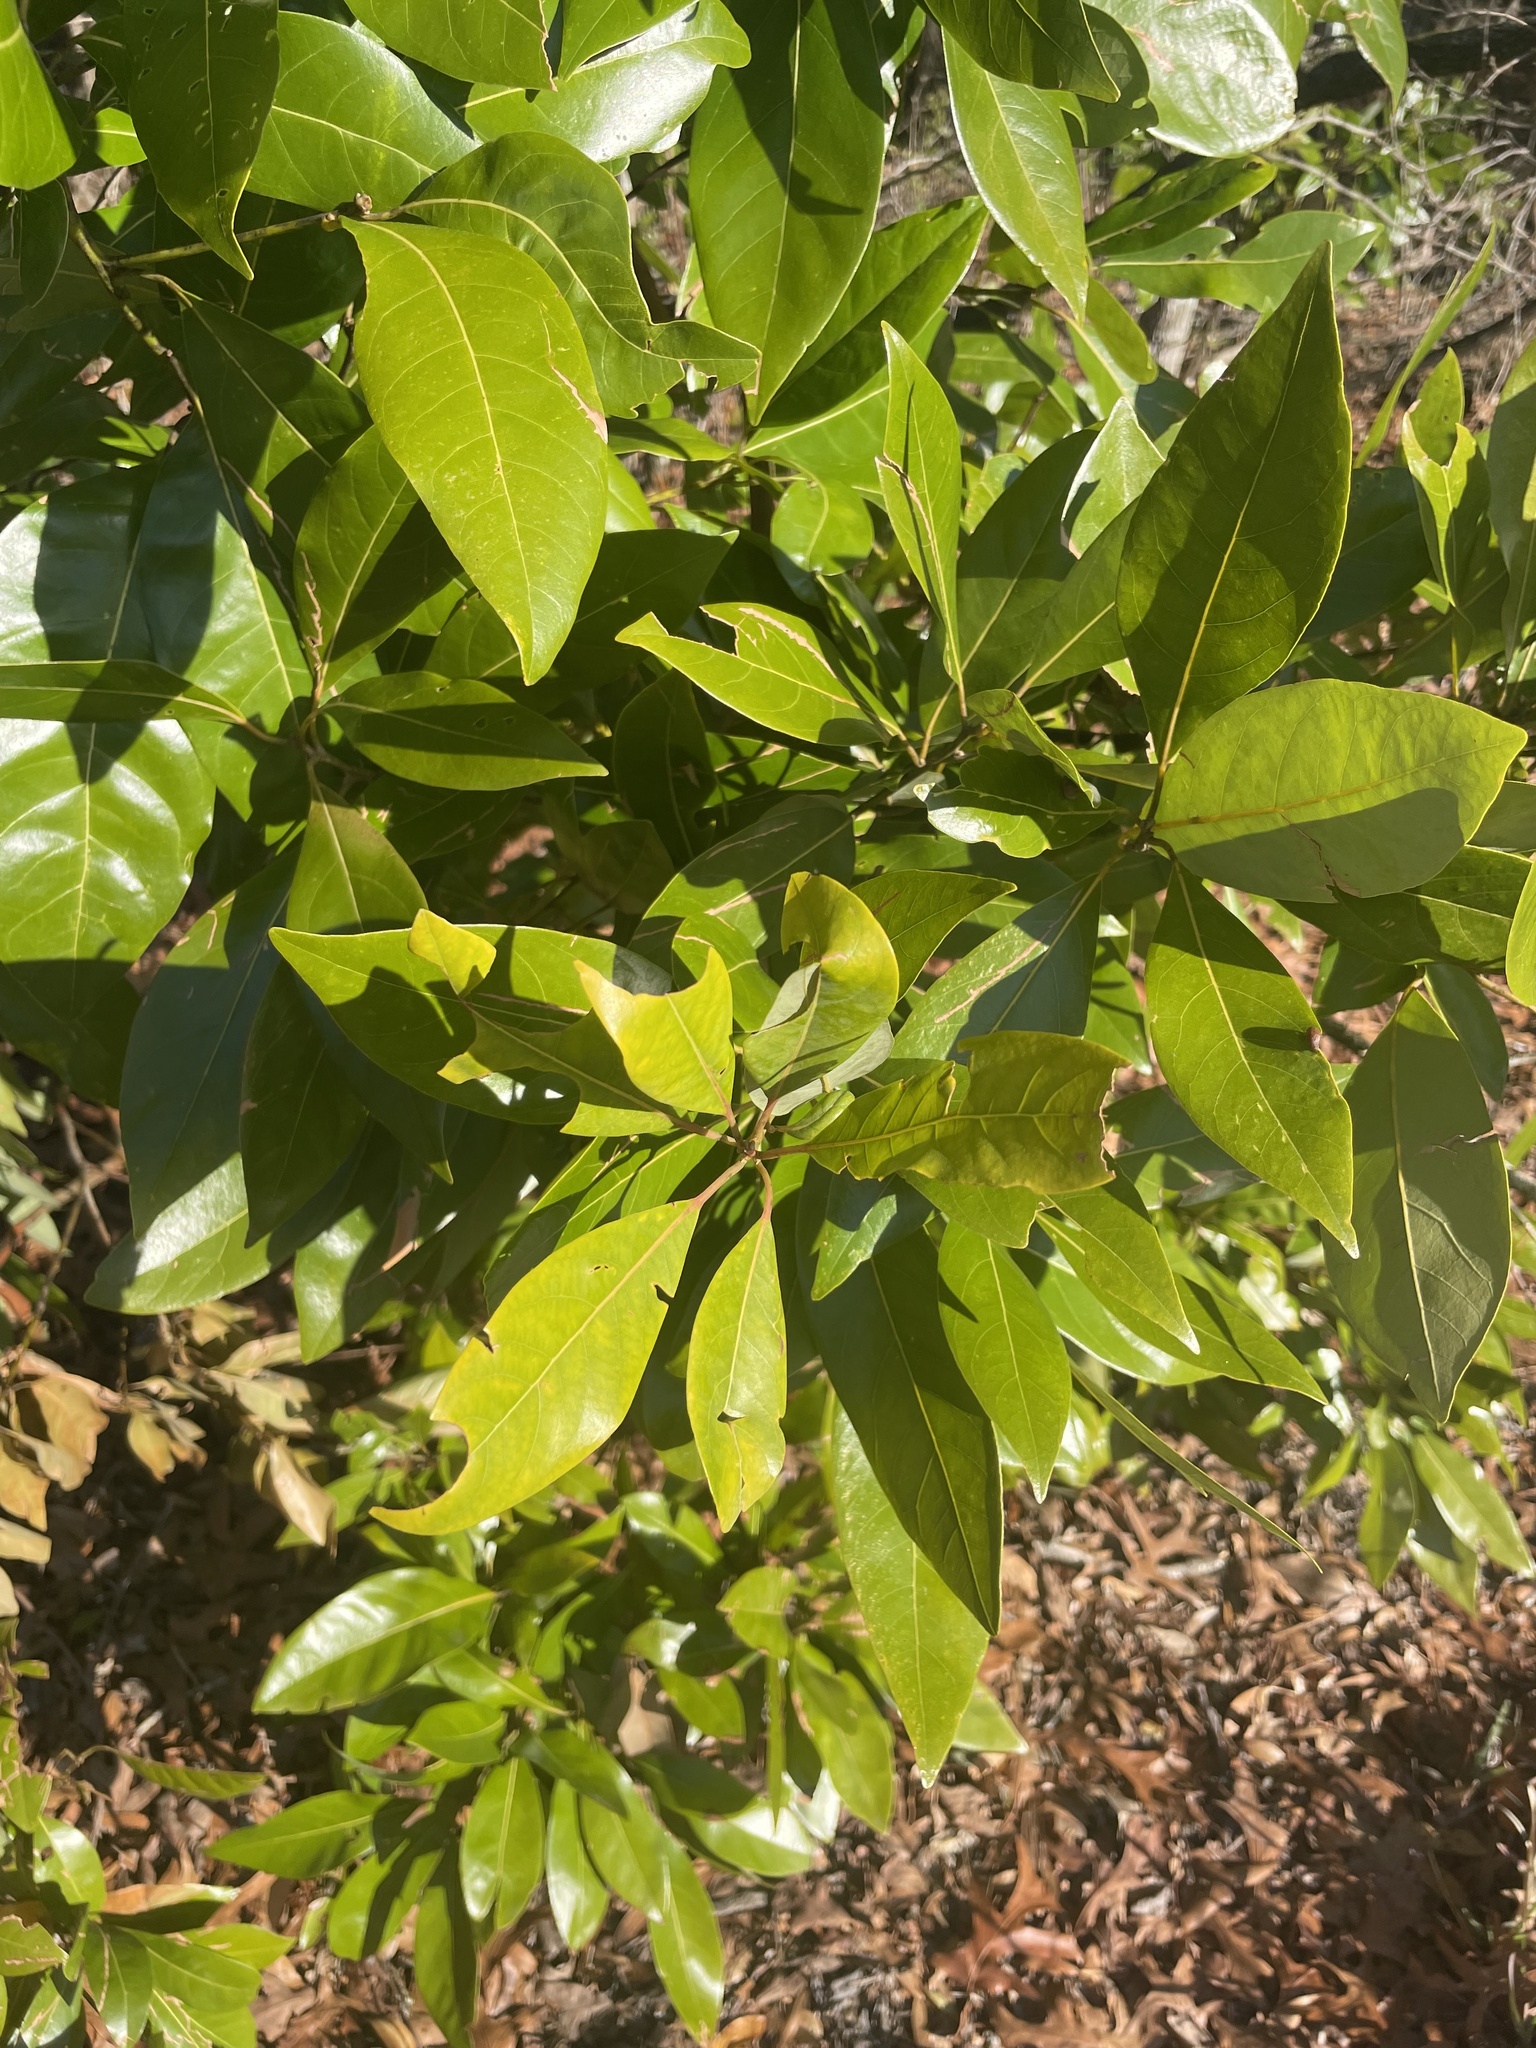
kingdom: Plantae
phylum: Tracheophyta
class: Magnoliopsida
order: Laurales
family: Lauraceae
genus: Persea
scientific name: Persea borbonia
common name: Redbay
